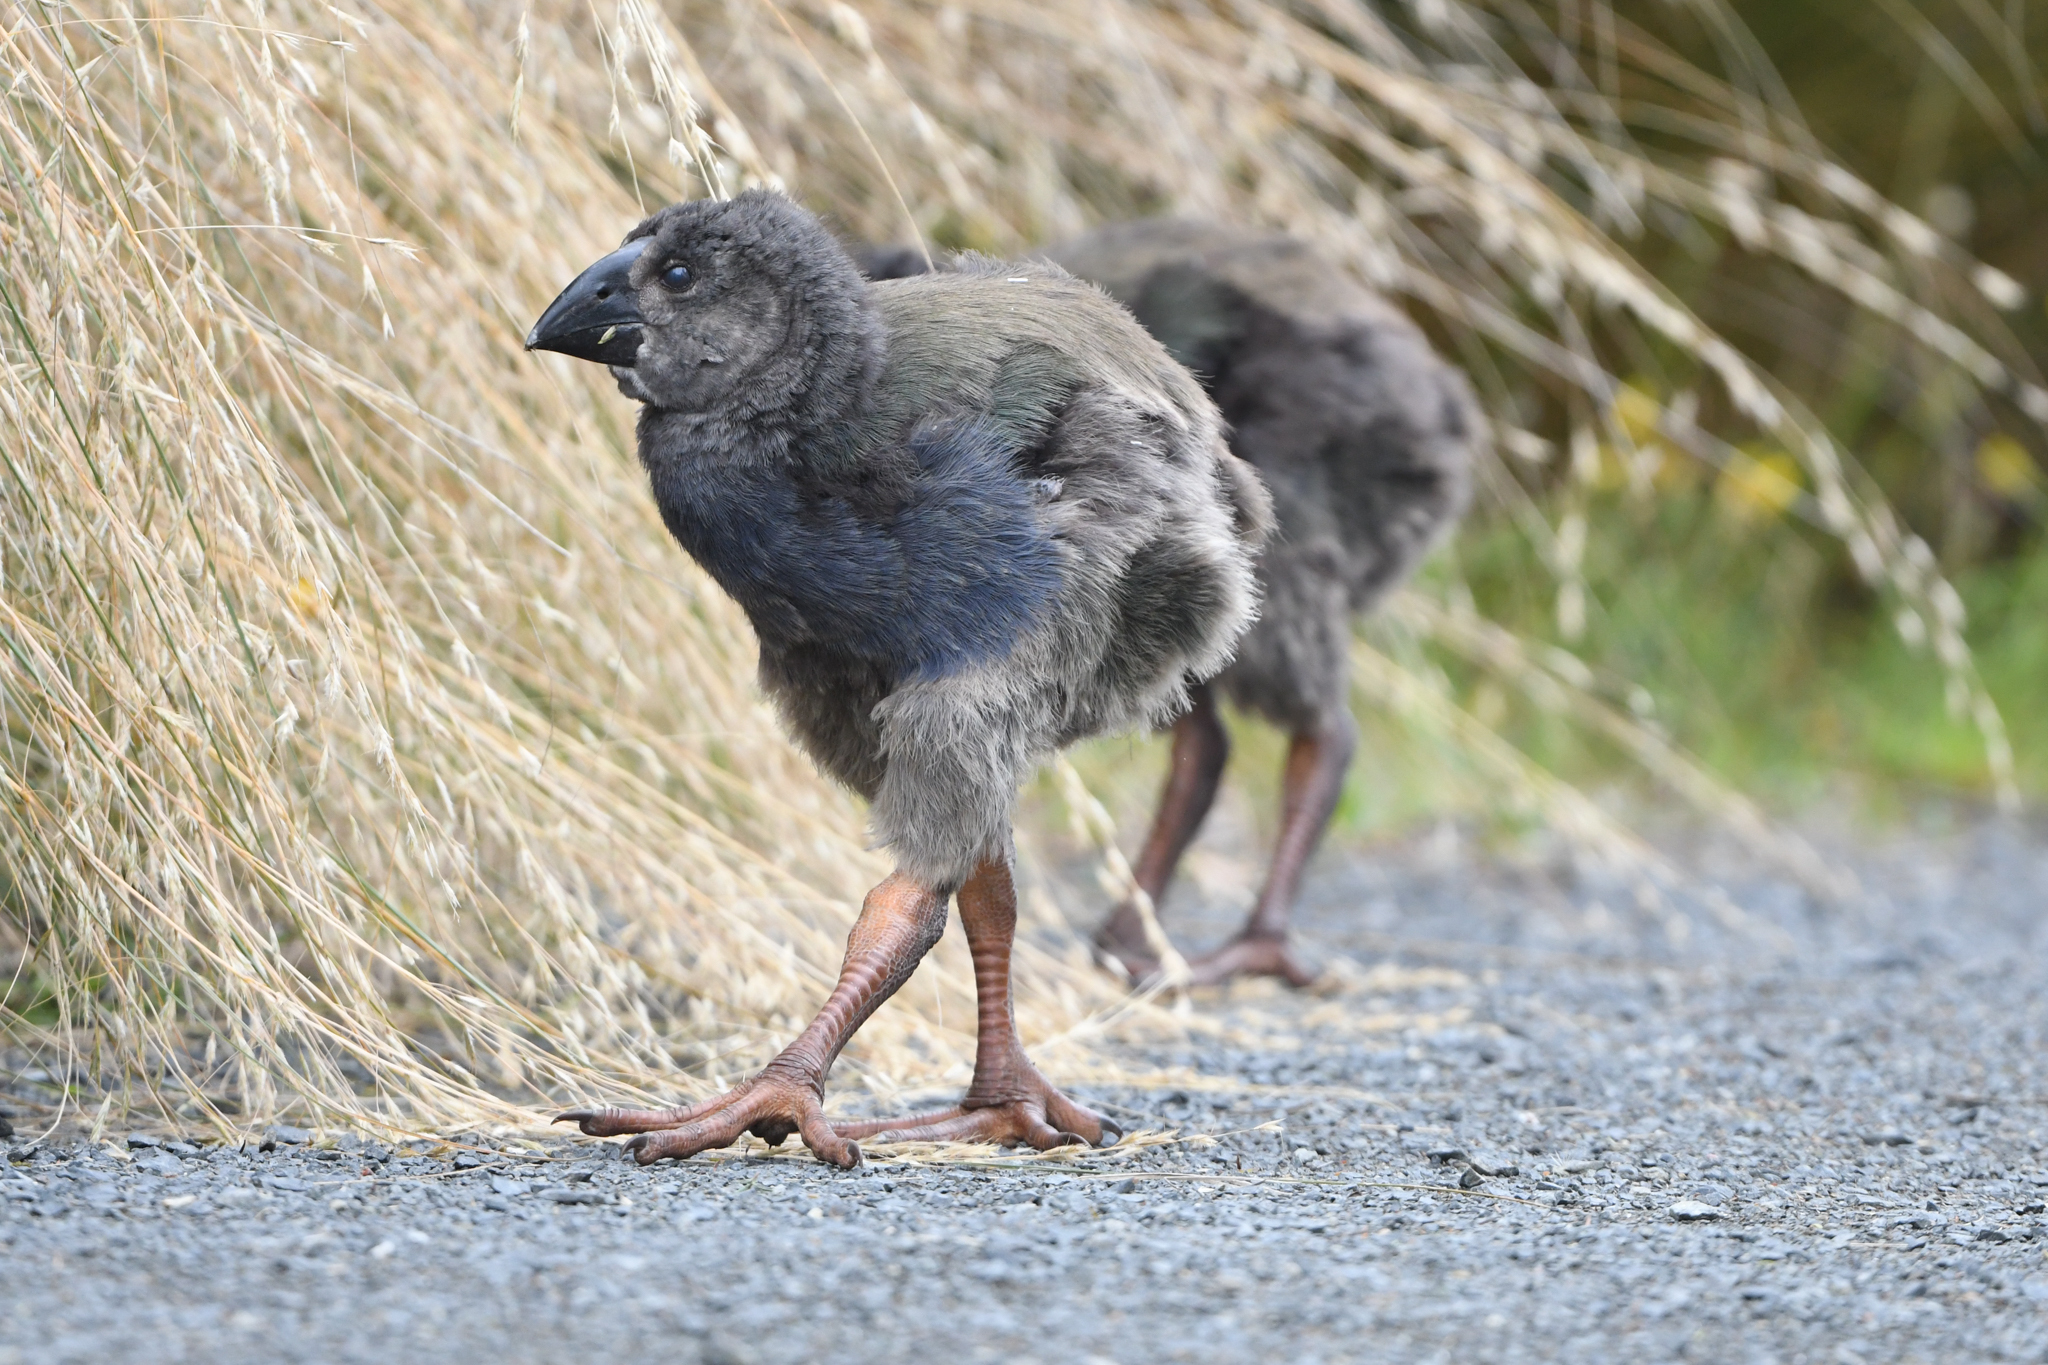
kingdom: Animalia
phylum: Chordata
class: Aves
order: Gruiformes
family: Rallidae
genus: Porphyrio
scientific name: Porphyrio hochstetteri
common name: South island takahe
